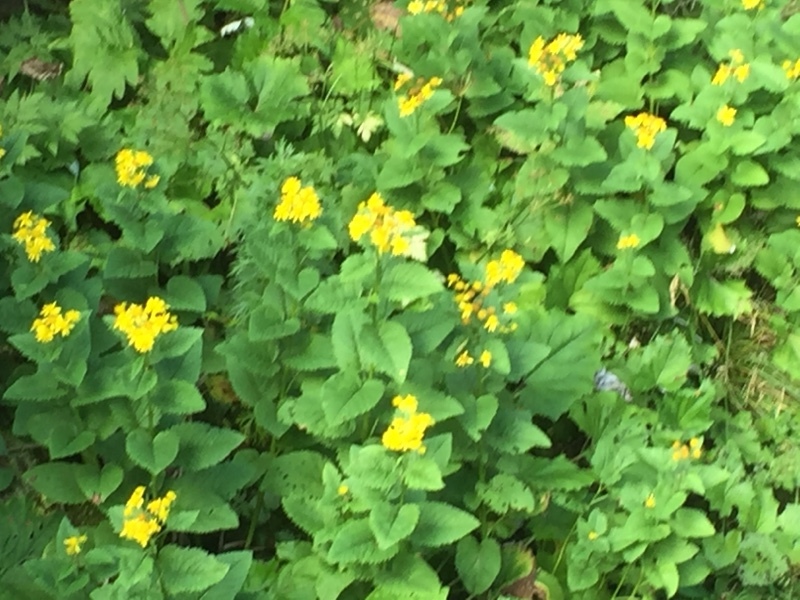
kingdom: Plantae
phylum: Tracheophyta
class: Magnoliopsida
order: Asterales
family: Asteraceae
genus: Jacobaea
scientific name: Jacobaea alpina
